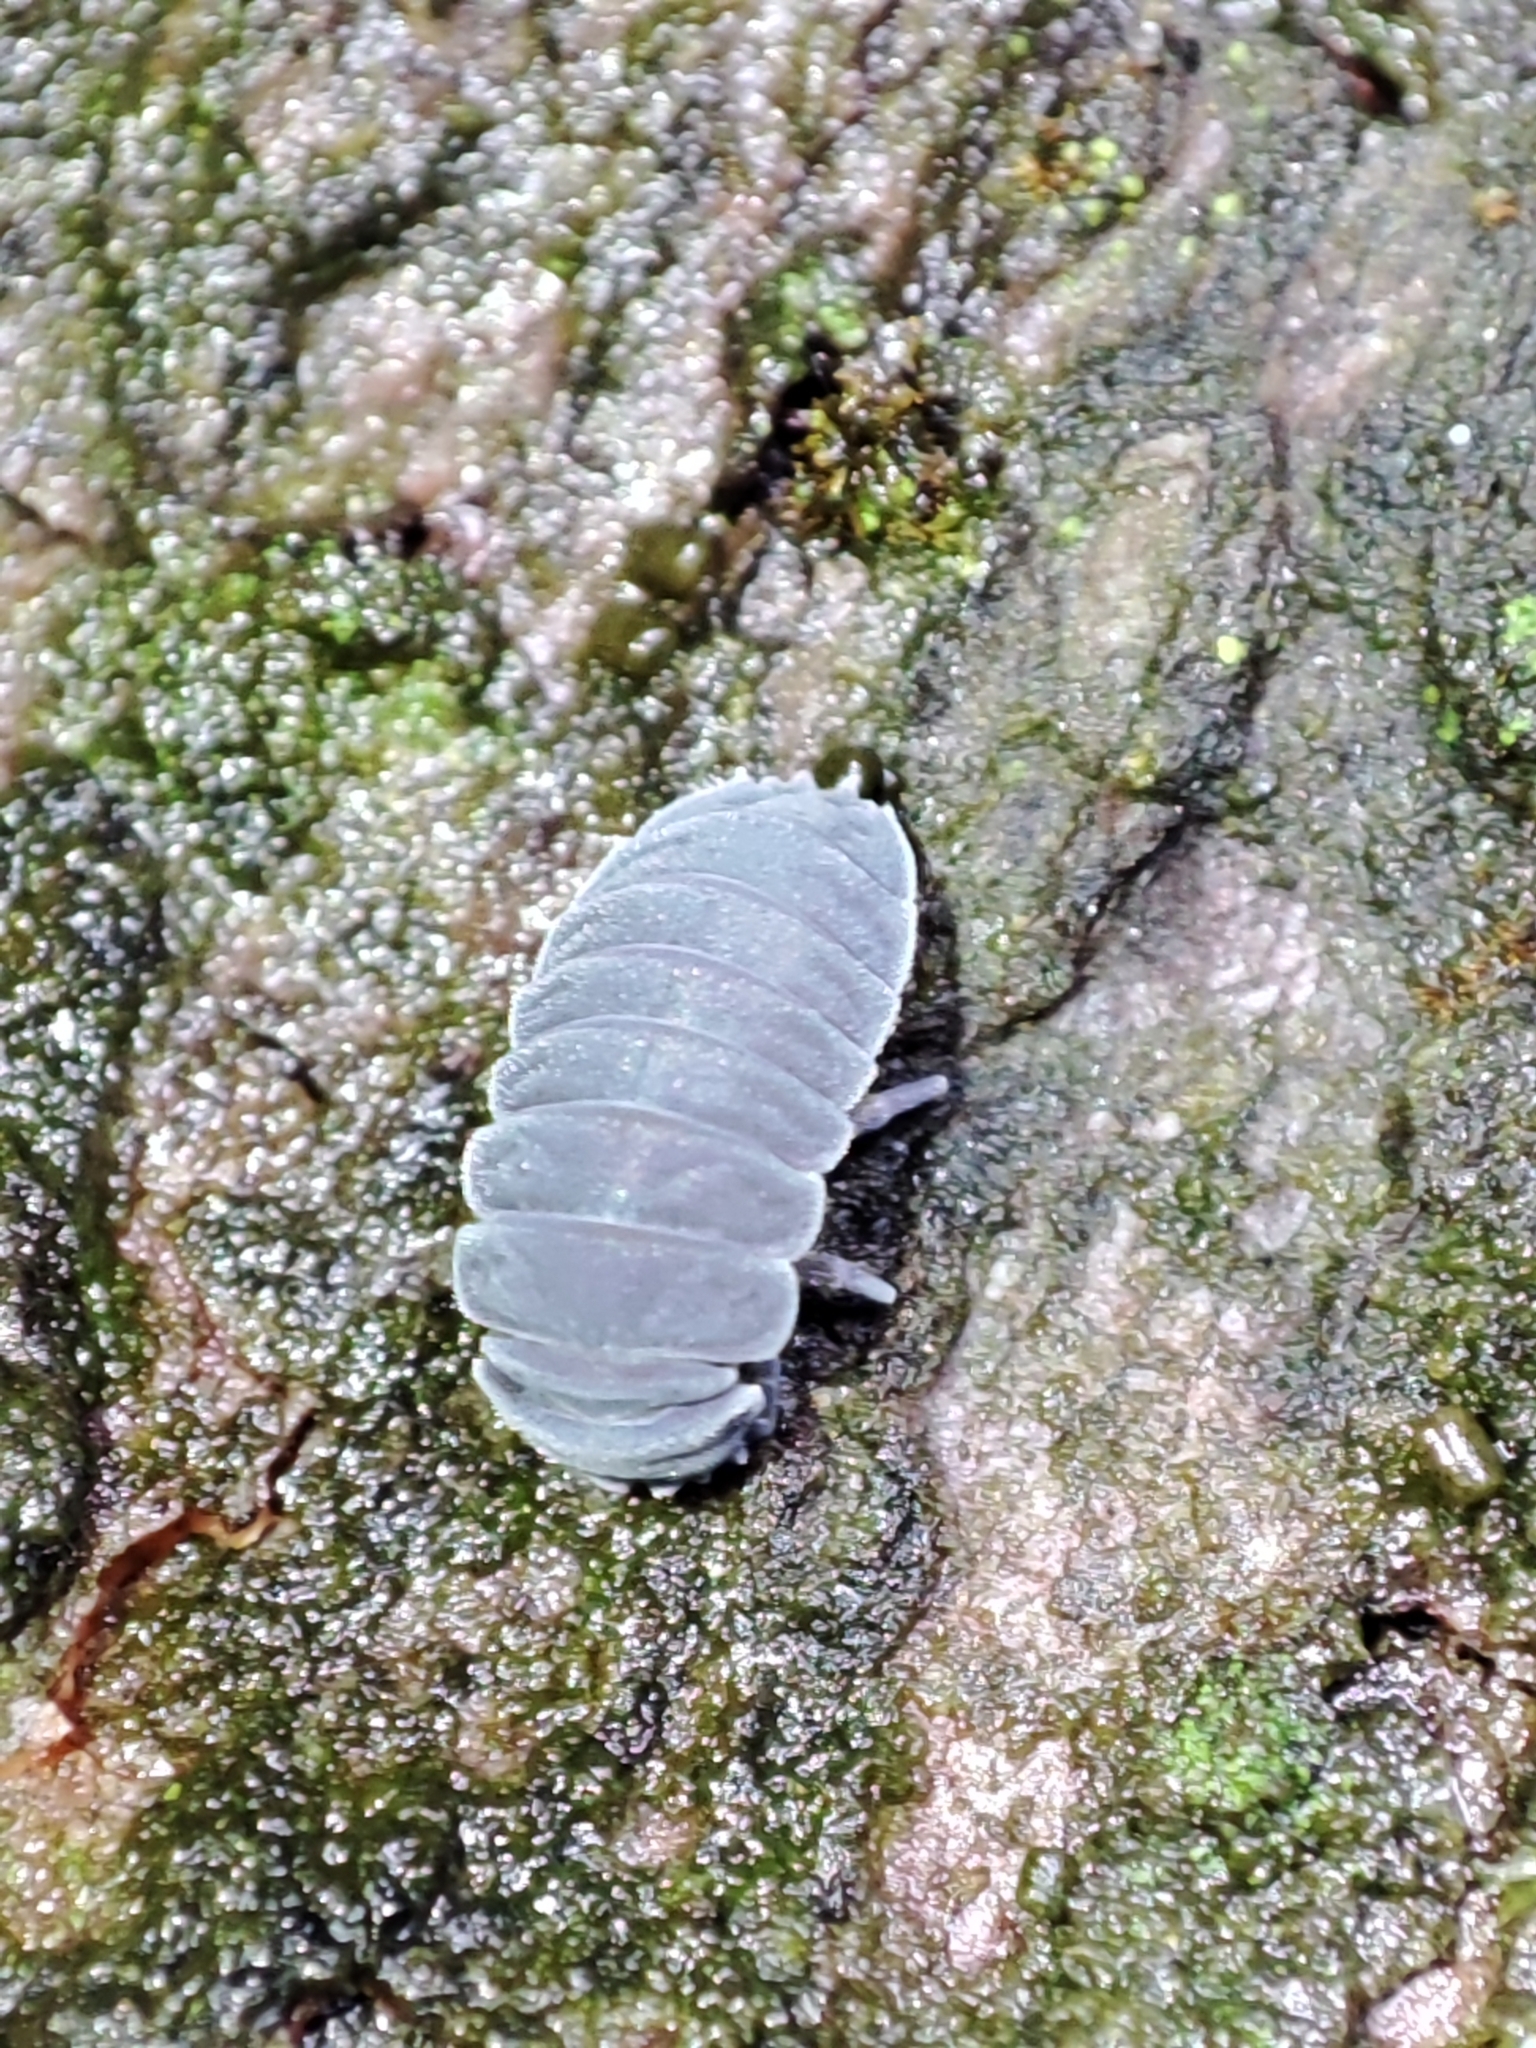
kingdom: Animalia
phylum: Arthropoda
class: Collembola
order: Poduromorpha
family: Onychiuridae
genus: Tetrodontophora
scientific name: Tetrodontophora bielanensis
